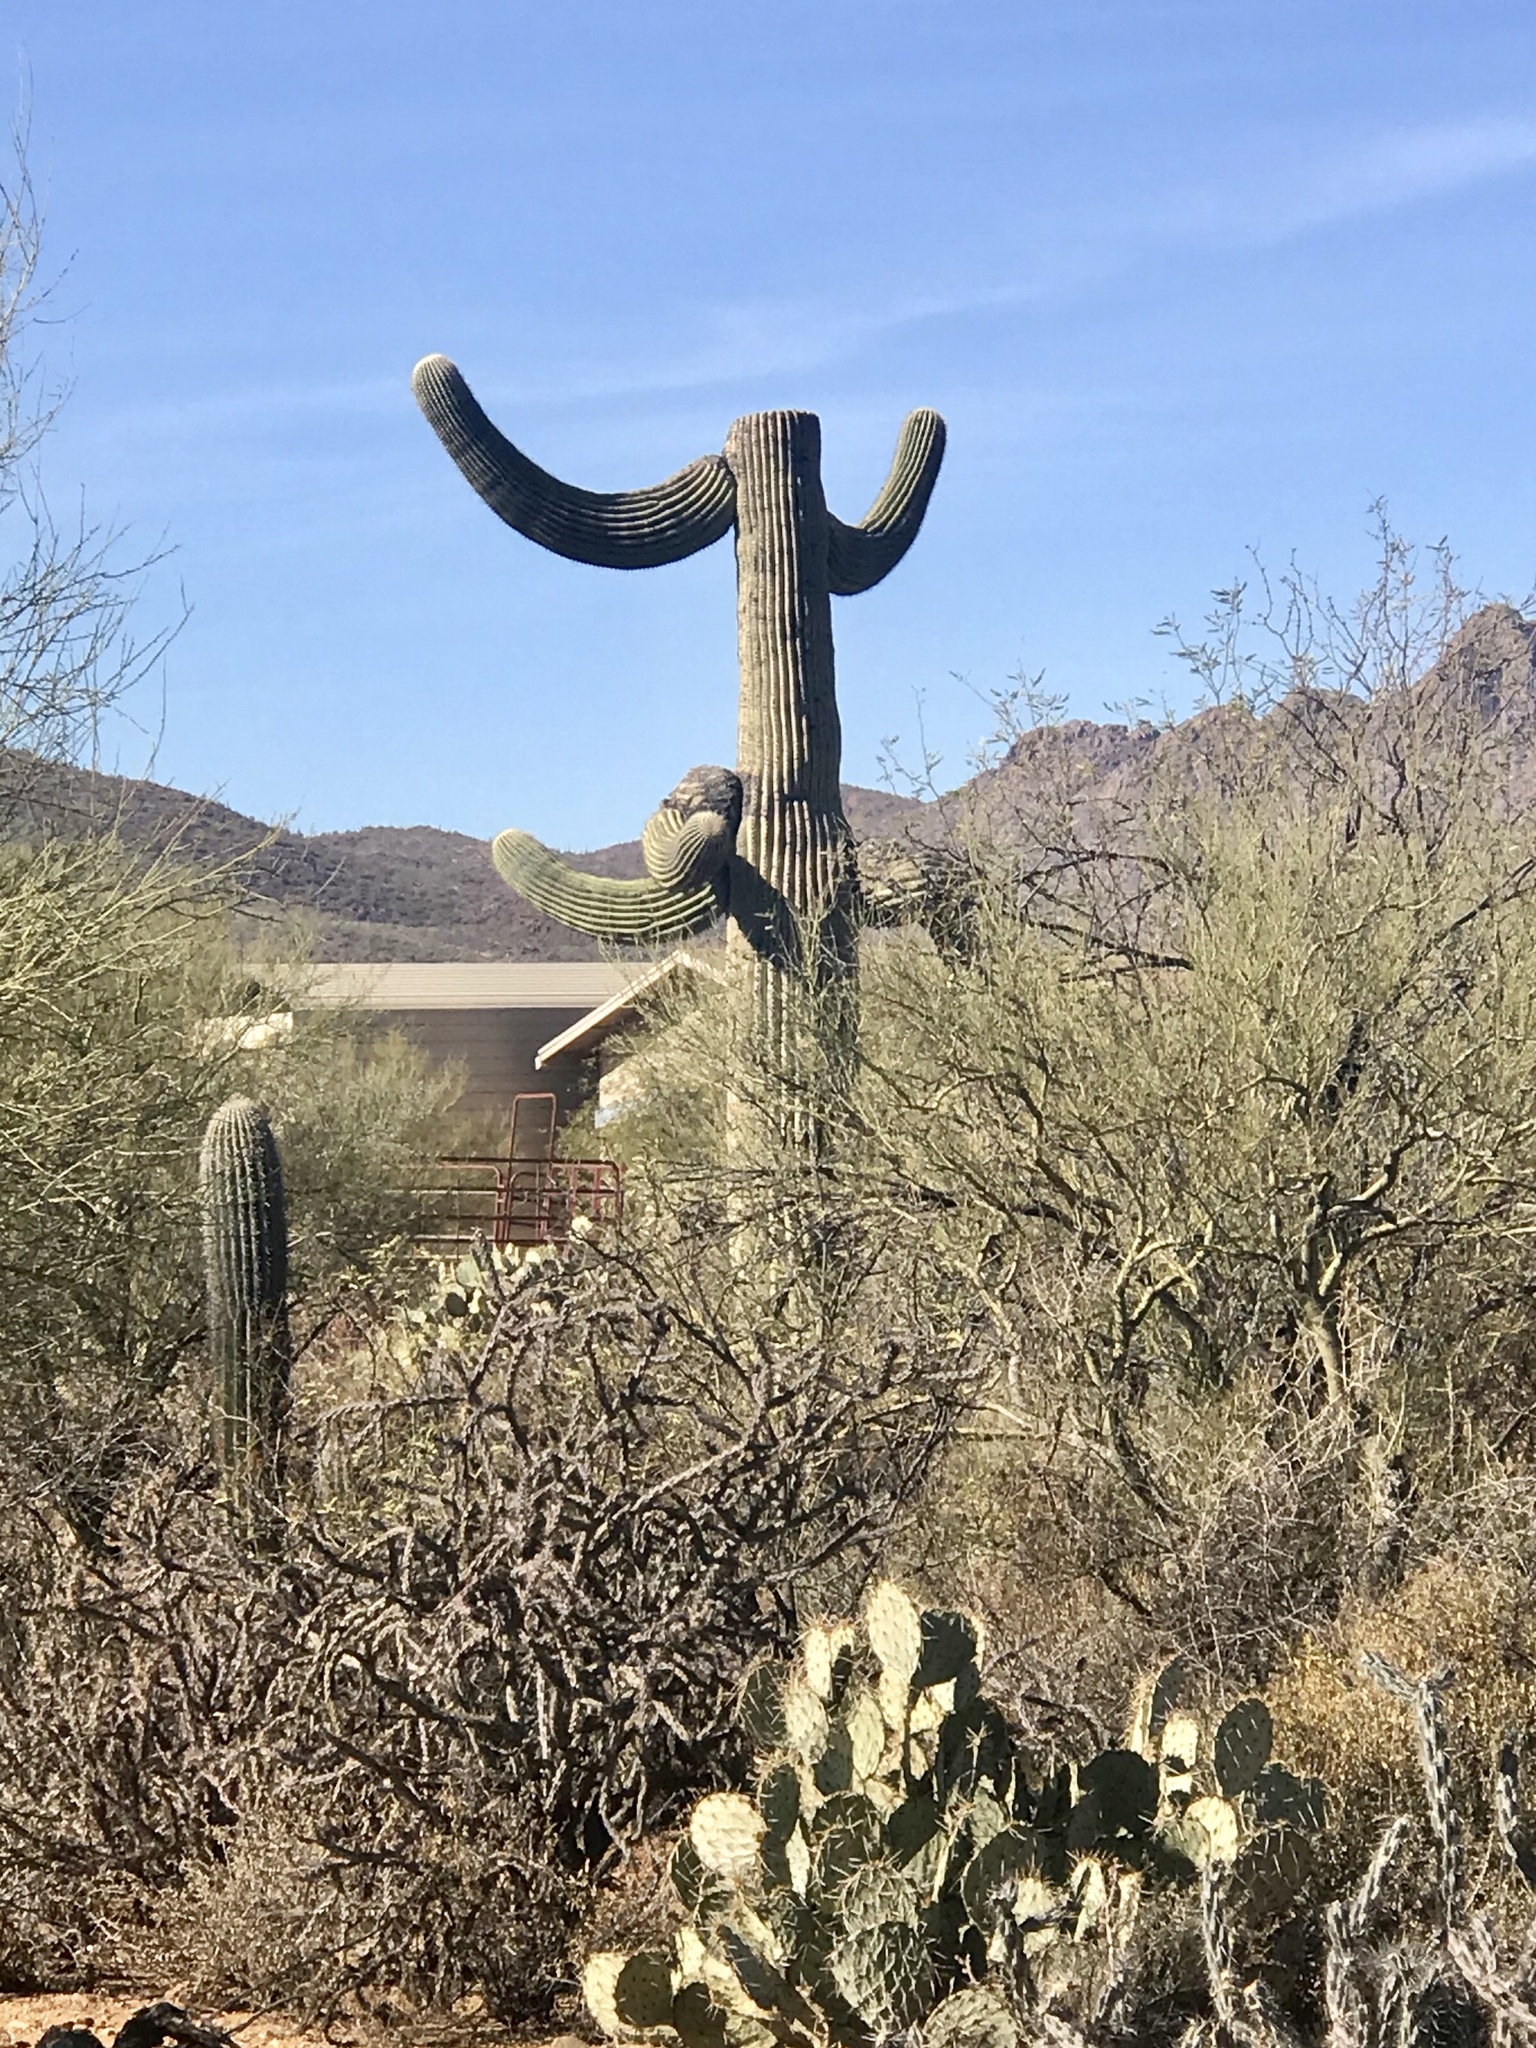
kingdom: Plantae
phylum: Tracheophyta
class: Magnoliopsida
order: Caryophyllales
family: Cactaceae
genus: Carnegiea
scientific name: Carnegiea gigantea
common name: Saguaro
